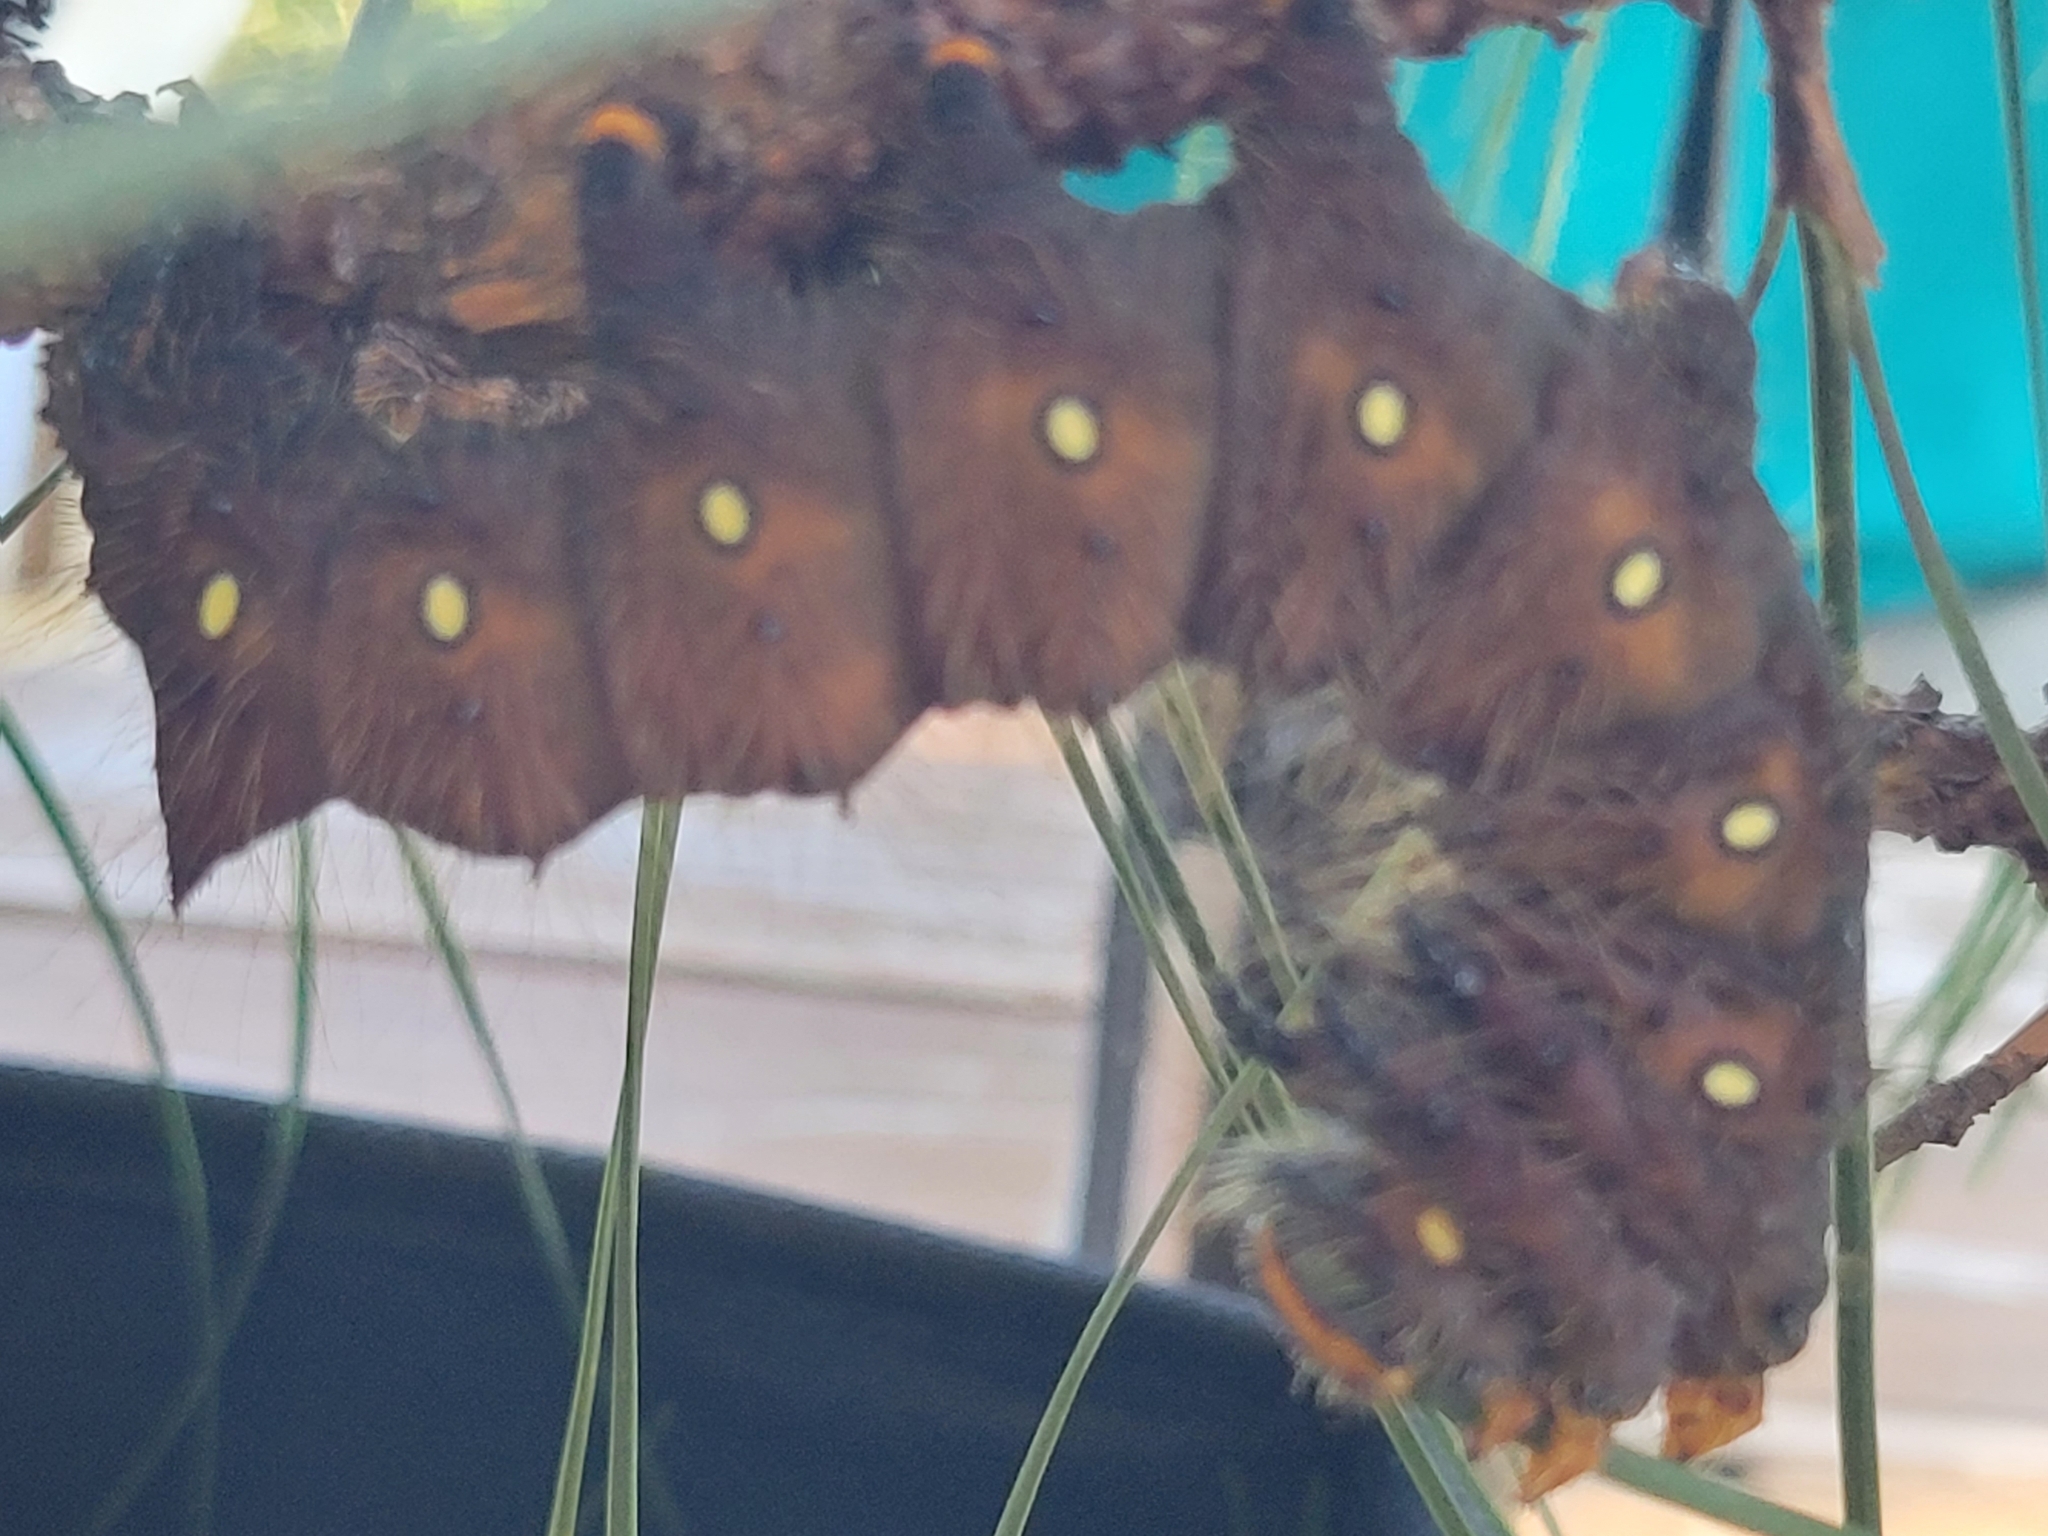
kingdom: Animalia
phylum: Arthropoda
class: Insecta
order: Lepidoptera
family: Saturniidae
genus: Eacles
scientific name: Eacles imperialis
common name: Imperial moth
